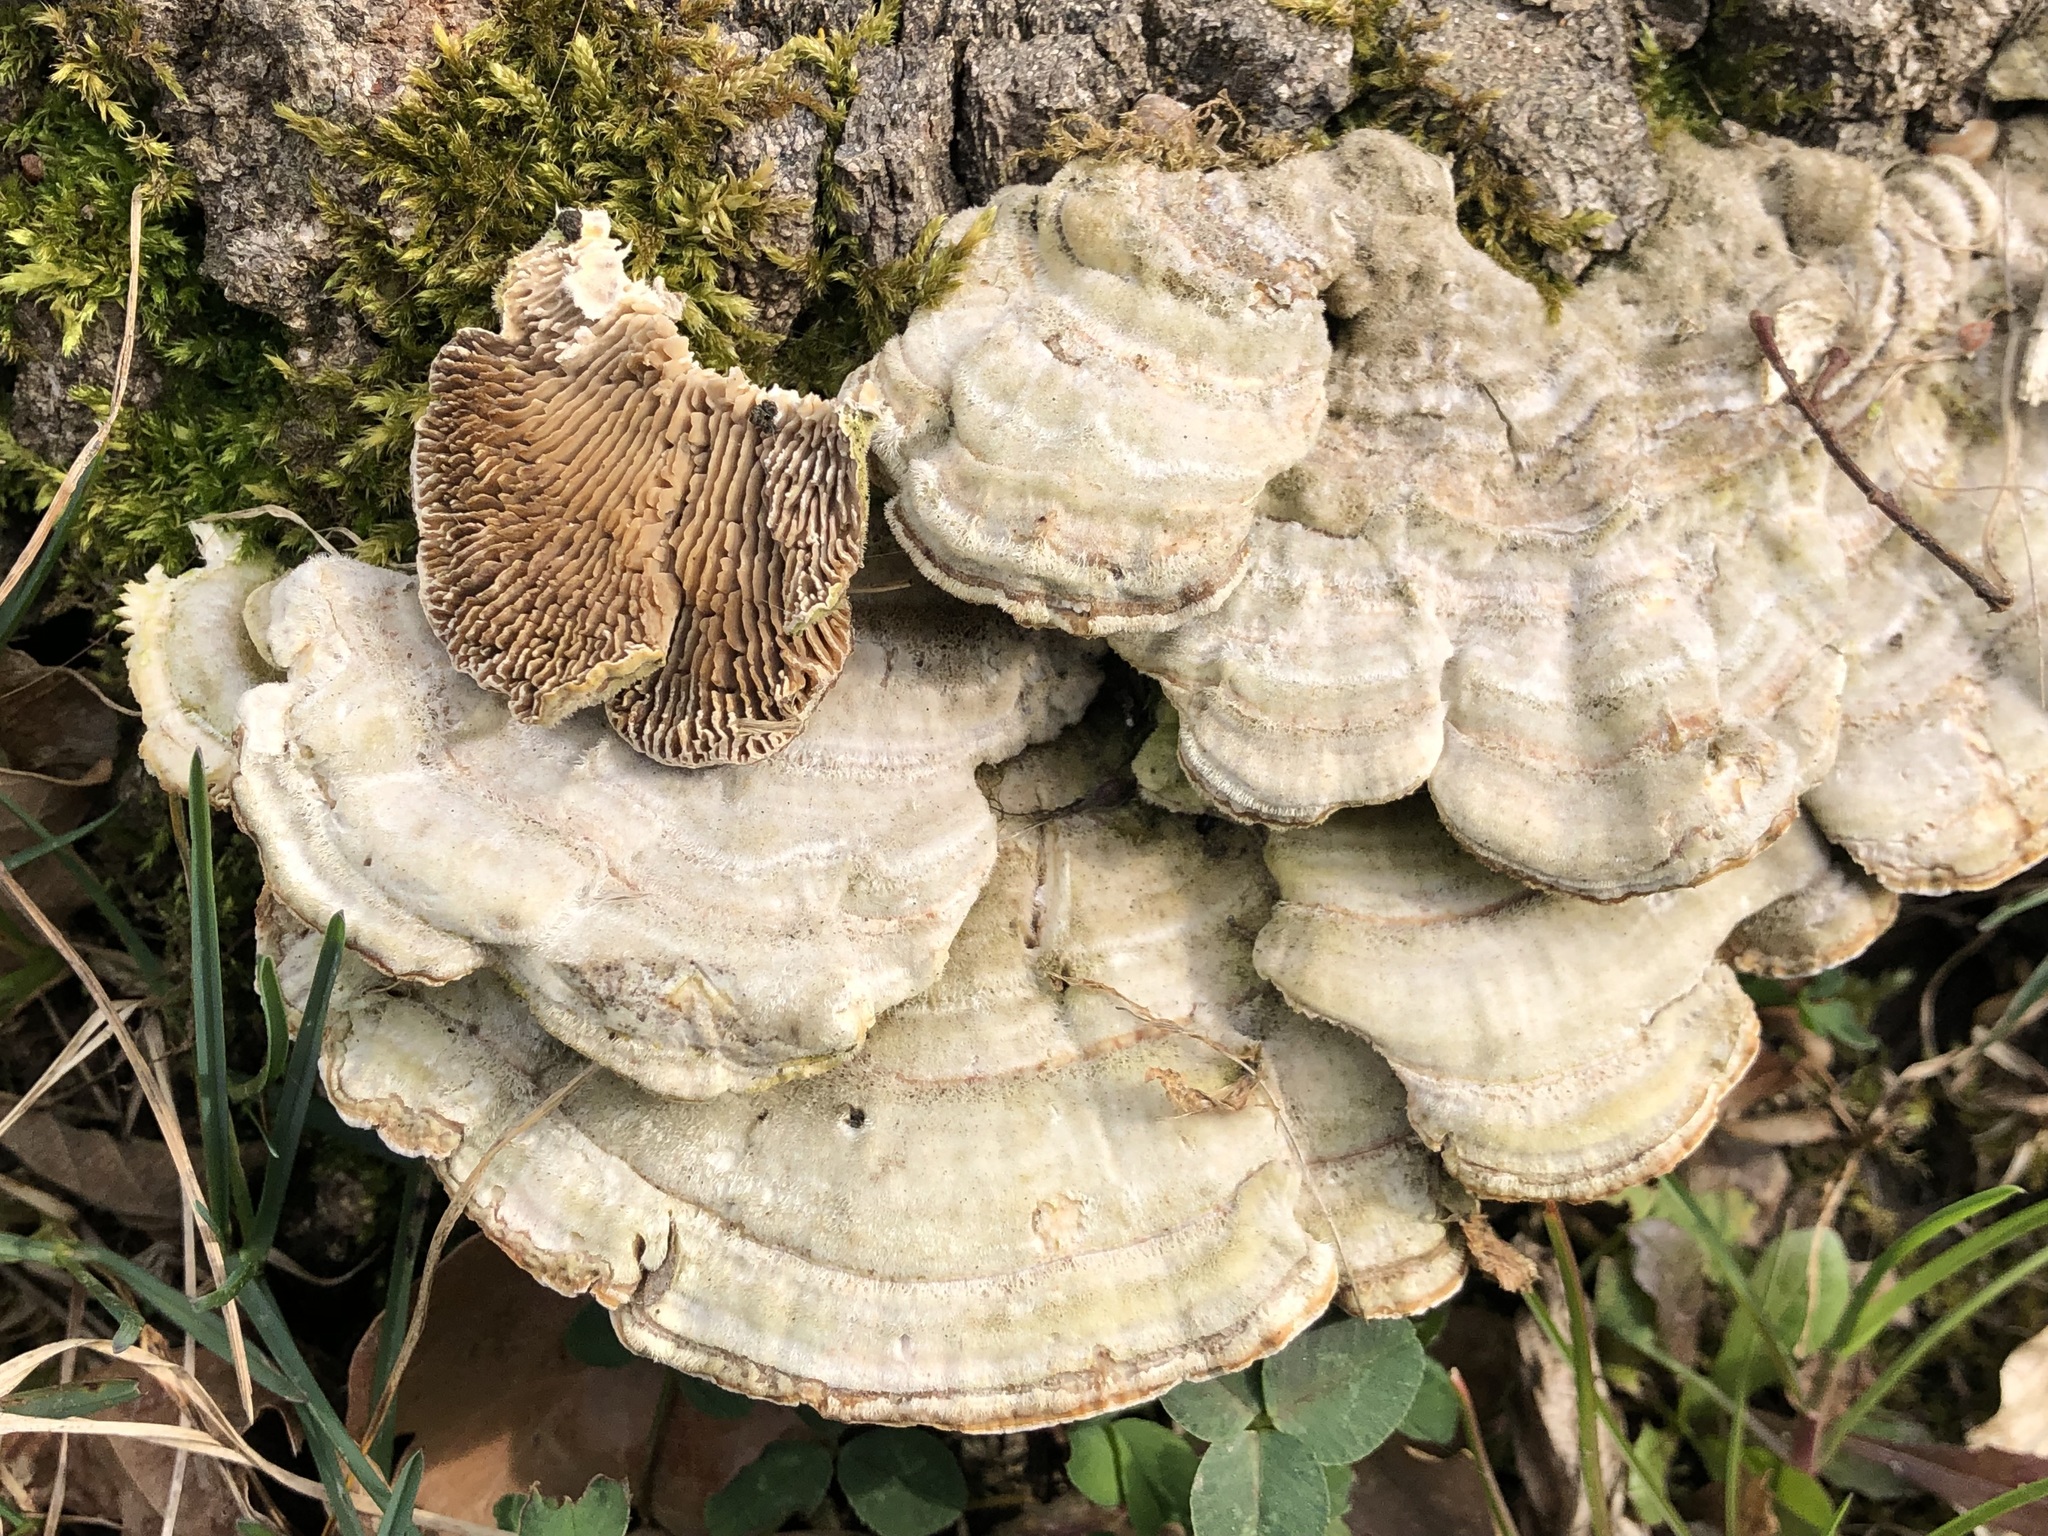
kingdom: Fungi
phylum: Basidiomycota
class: Agaricomycetes
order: Polyporales
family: Polyporaceae
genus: Lenzites
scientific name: Lenzites betulinus
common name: Birch mazegill
